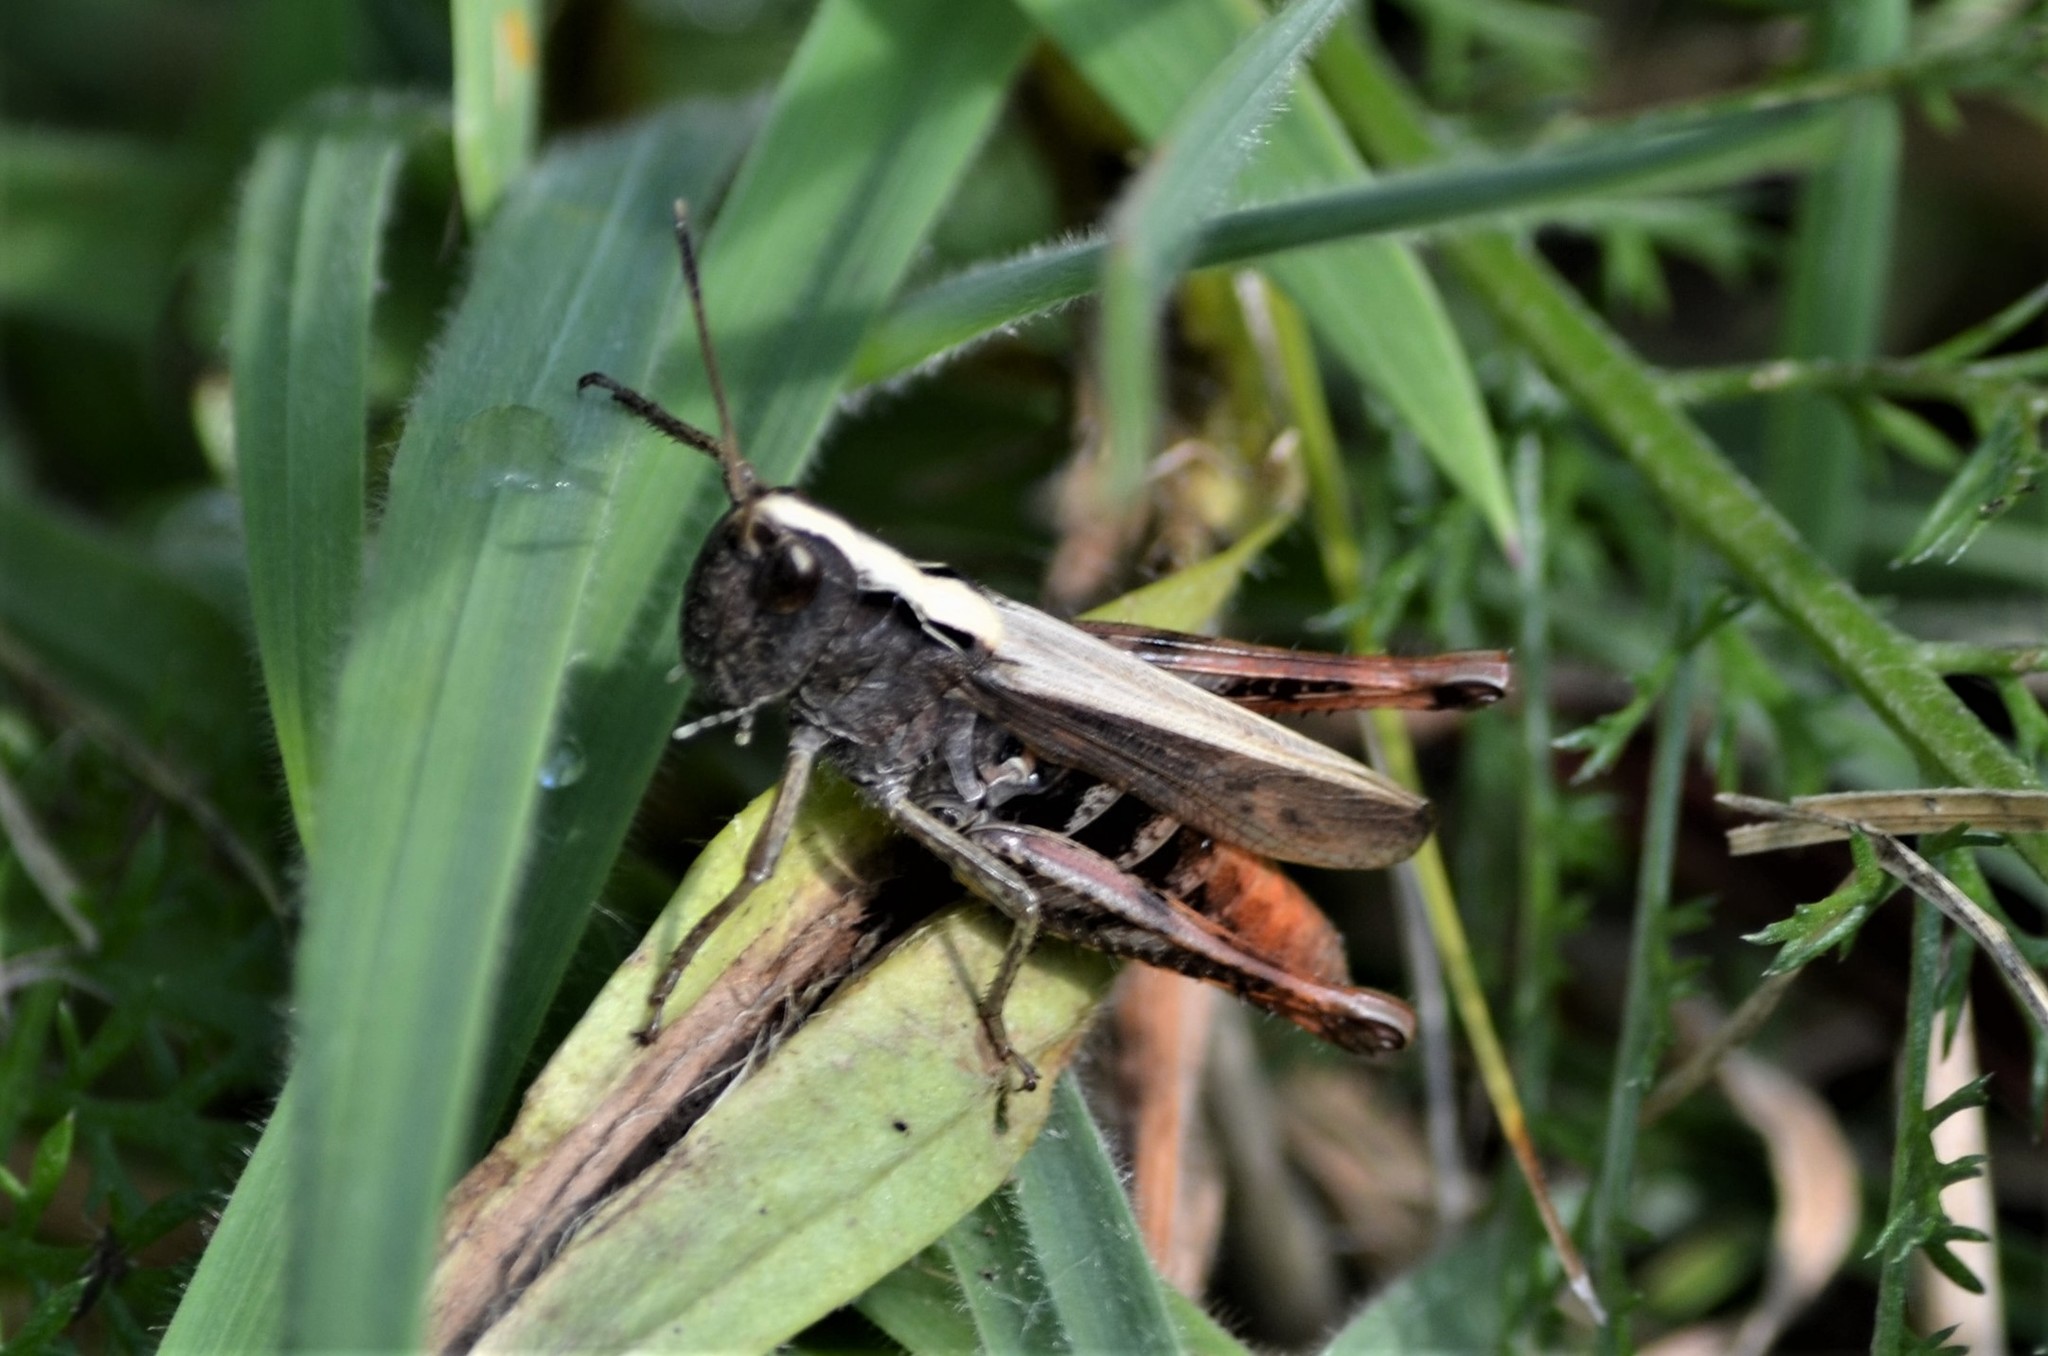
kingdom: Animalia
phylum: Arthropoda
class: Insecta
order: Orthoptera
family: Acrididae
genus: Gomphocerippus
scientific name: Gomphocerippus rufus
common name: Rufous grasshopper
